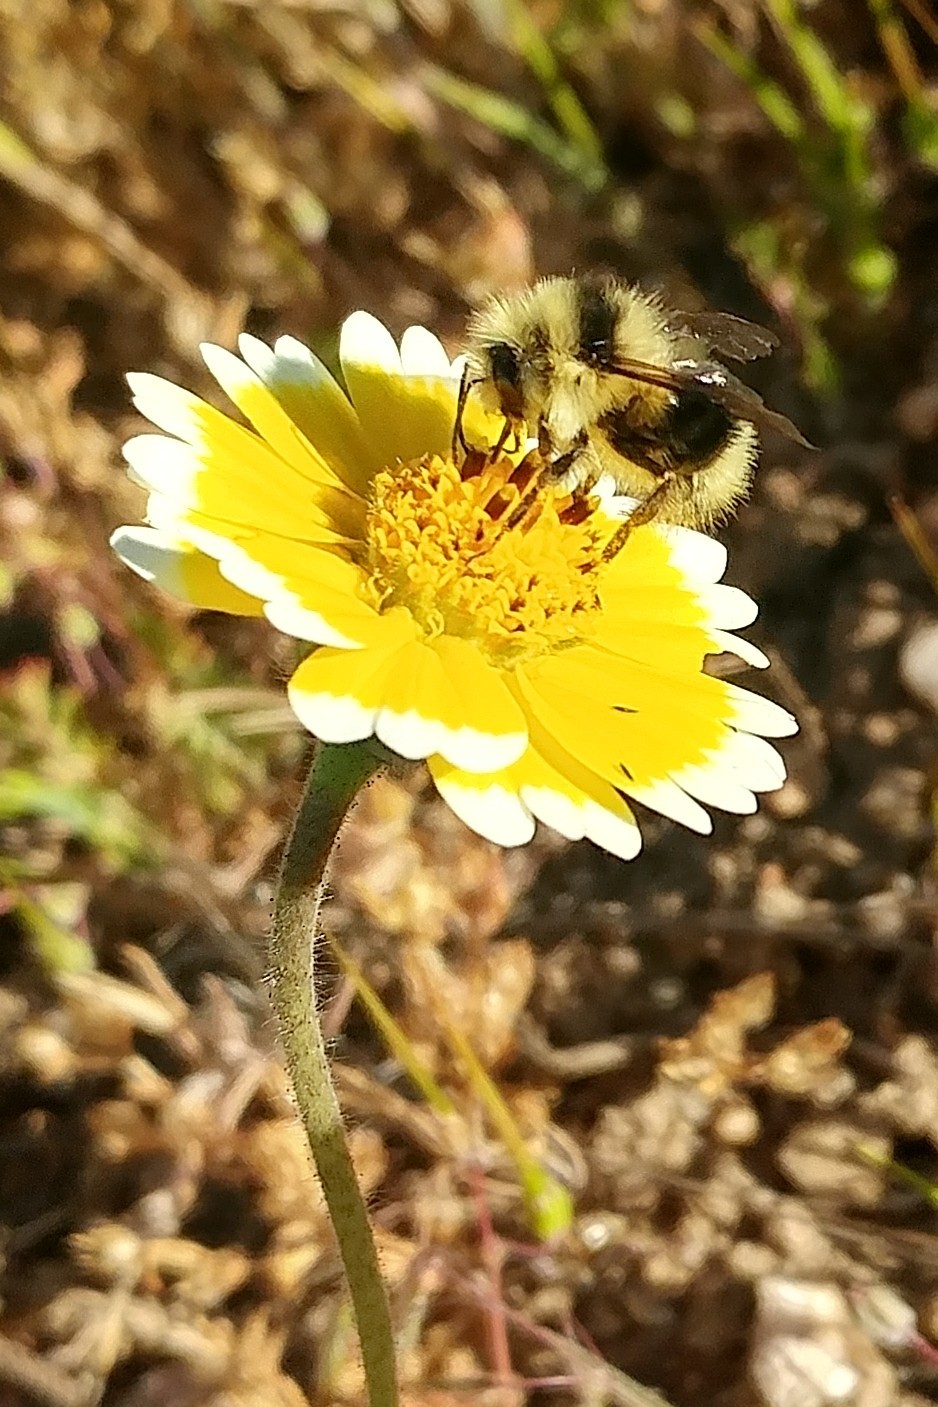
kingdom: Animalia
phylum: Arthropoda
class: Insecta
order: Hymenoptera
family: Apidae
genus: Bombus
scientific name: Bombus melanopygus
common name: Black tail bumble bee
